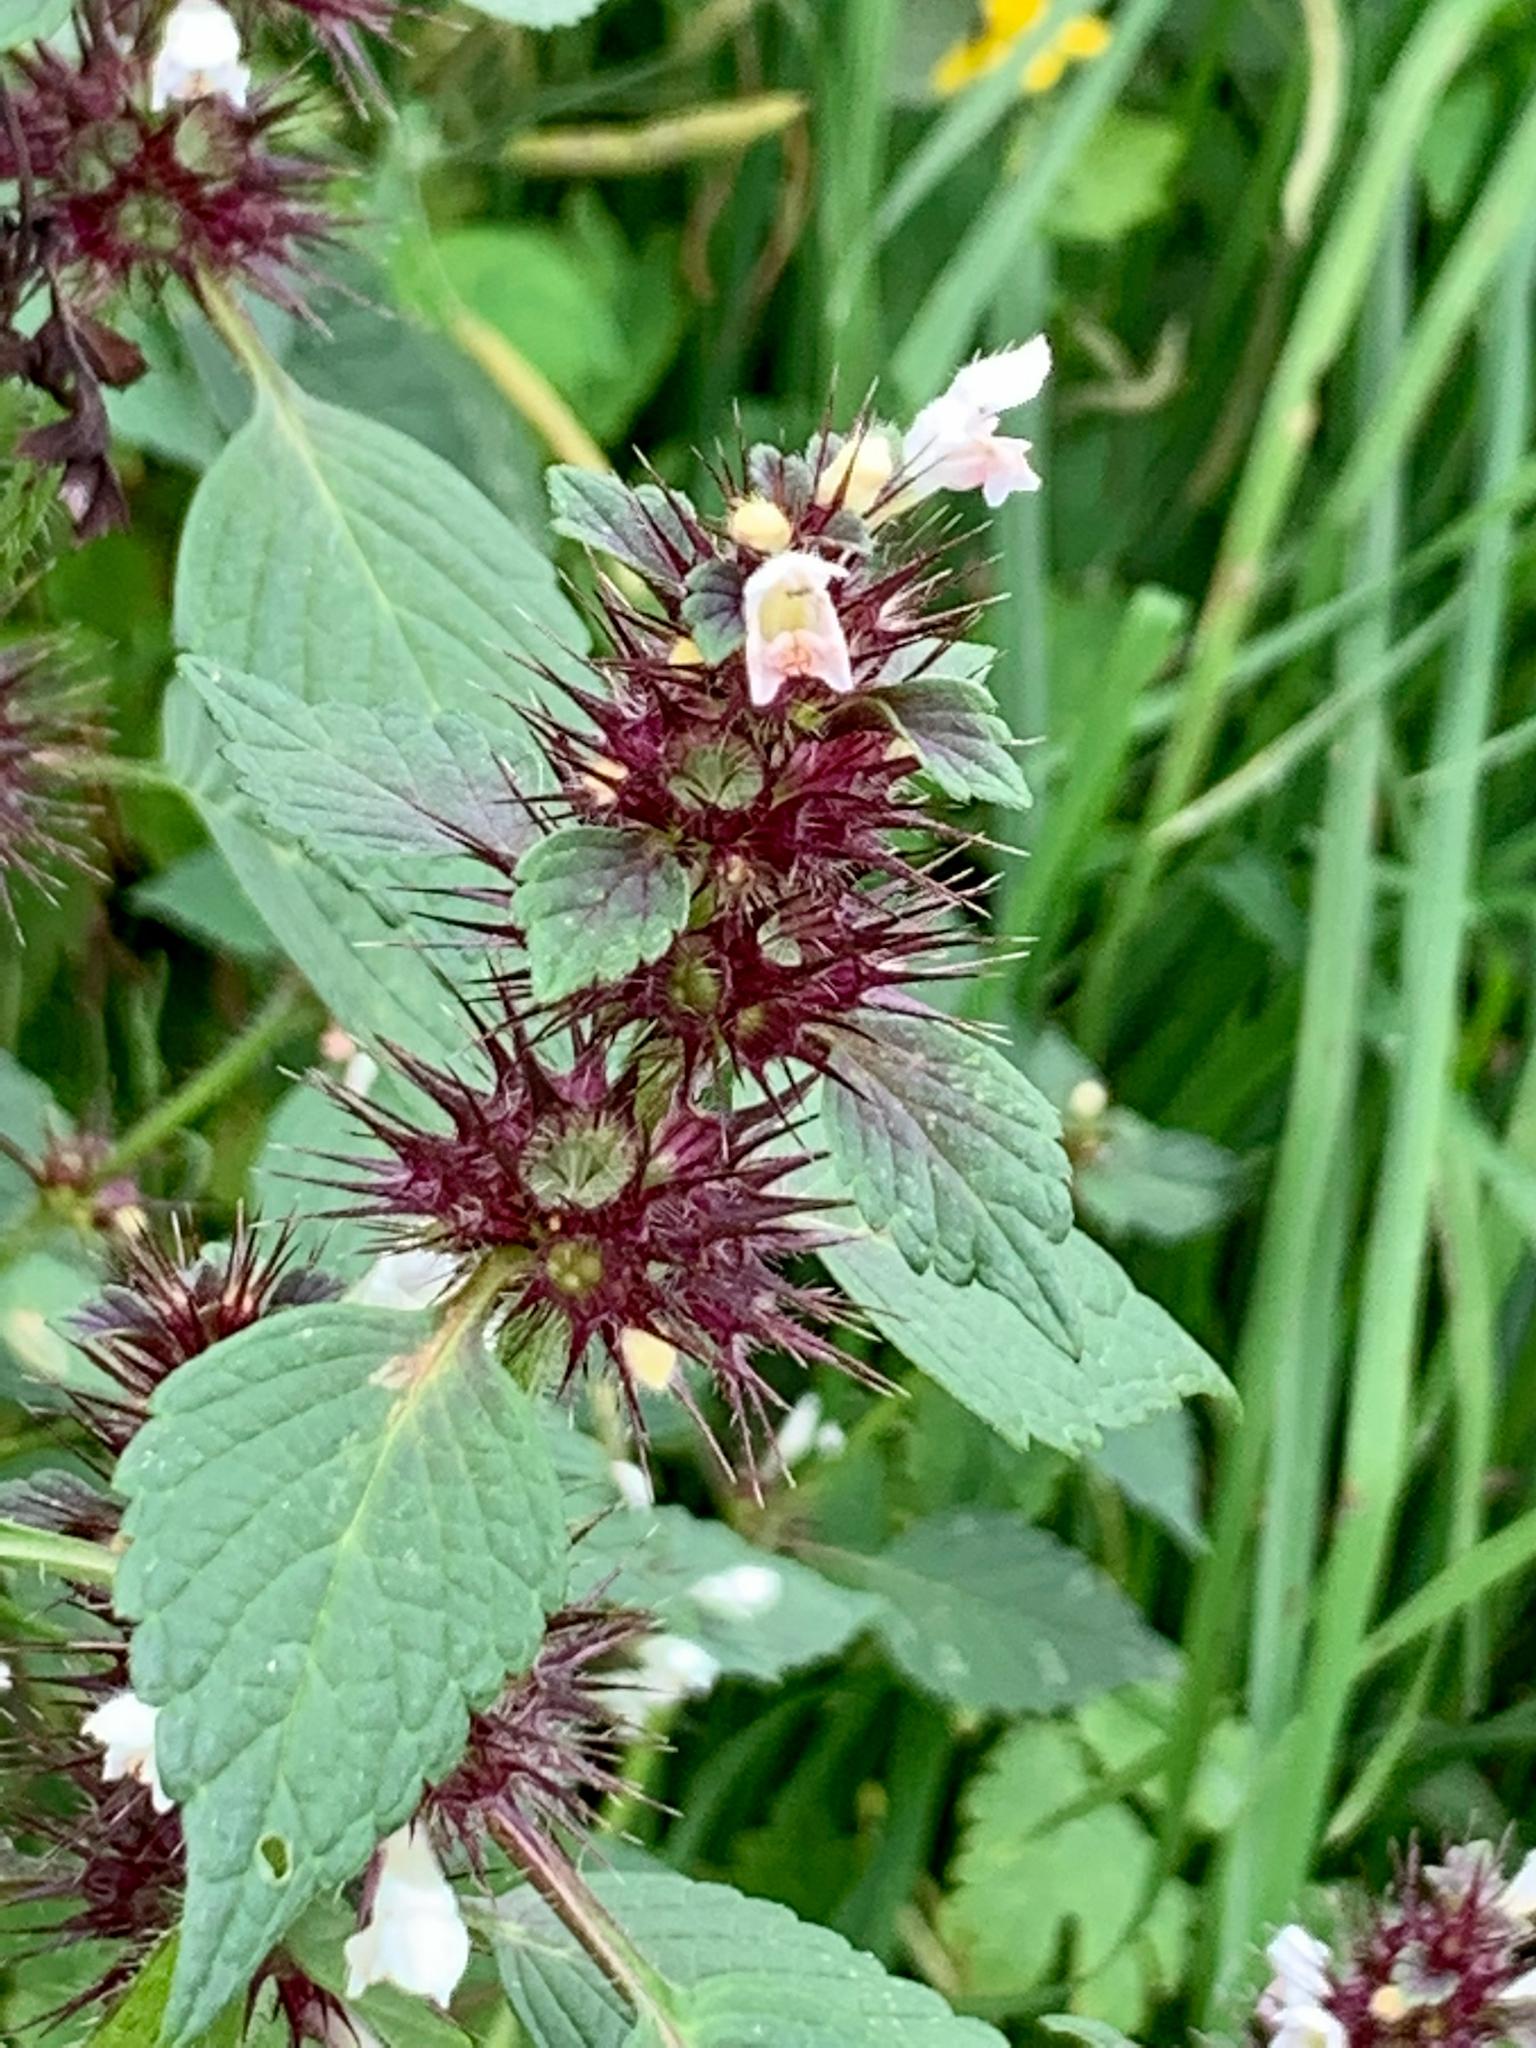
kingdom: Plantae
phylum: Tracheophyta
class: Magnoliopsida
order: Lamiales
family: Lamiaceae
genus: Galeopsis
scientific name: Galeopsis tetrahit
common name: Common hemp-nettle
